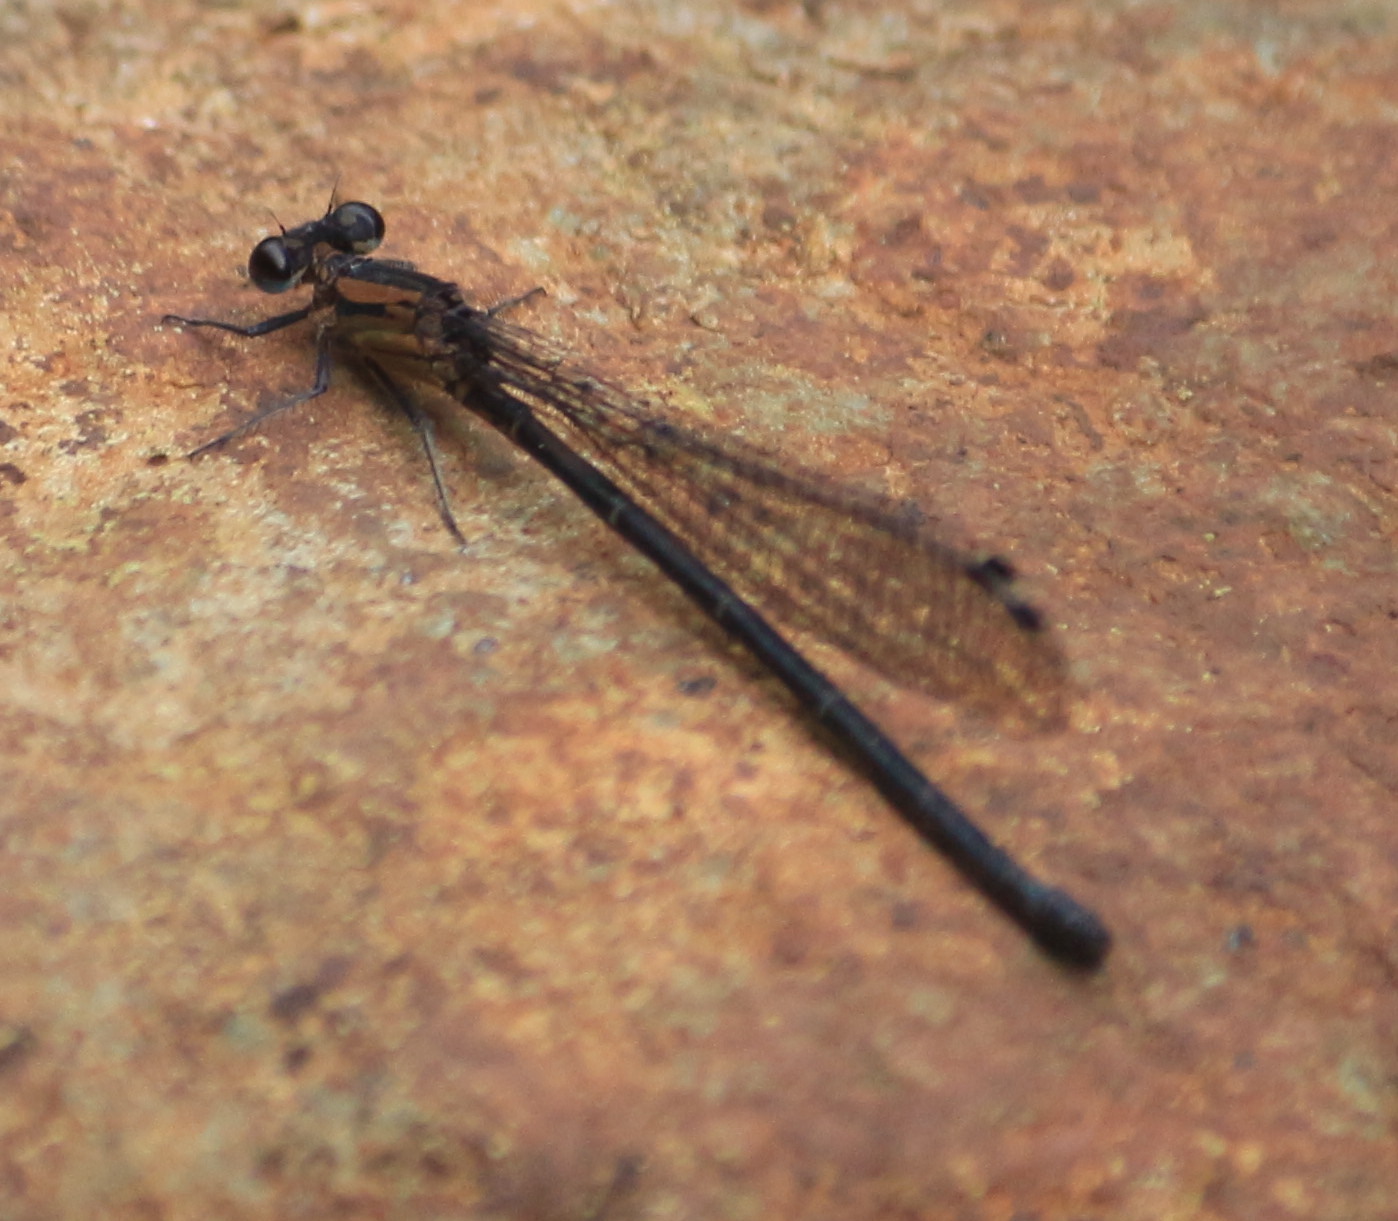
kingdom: Animalia
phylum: Arthropoda
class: Insecta
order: Odonata
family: Coenagrionidae
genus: Argia
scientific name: Argia chelata
